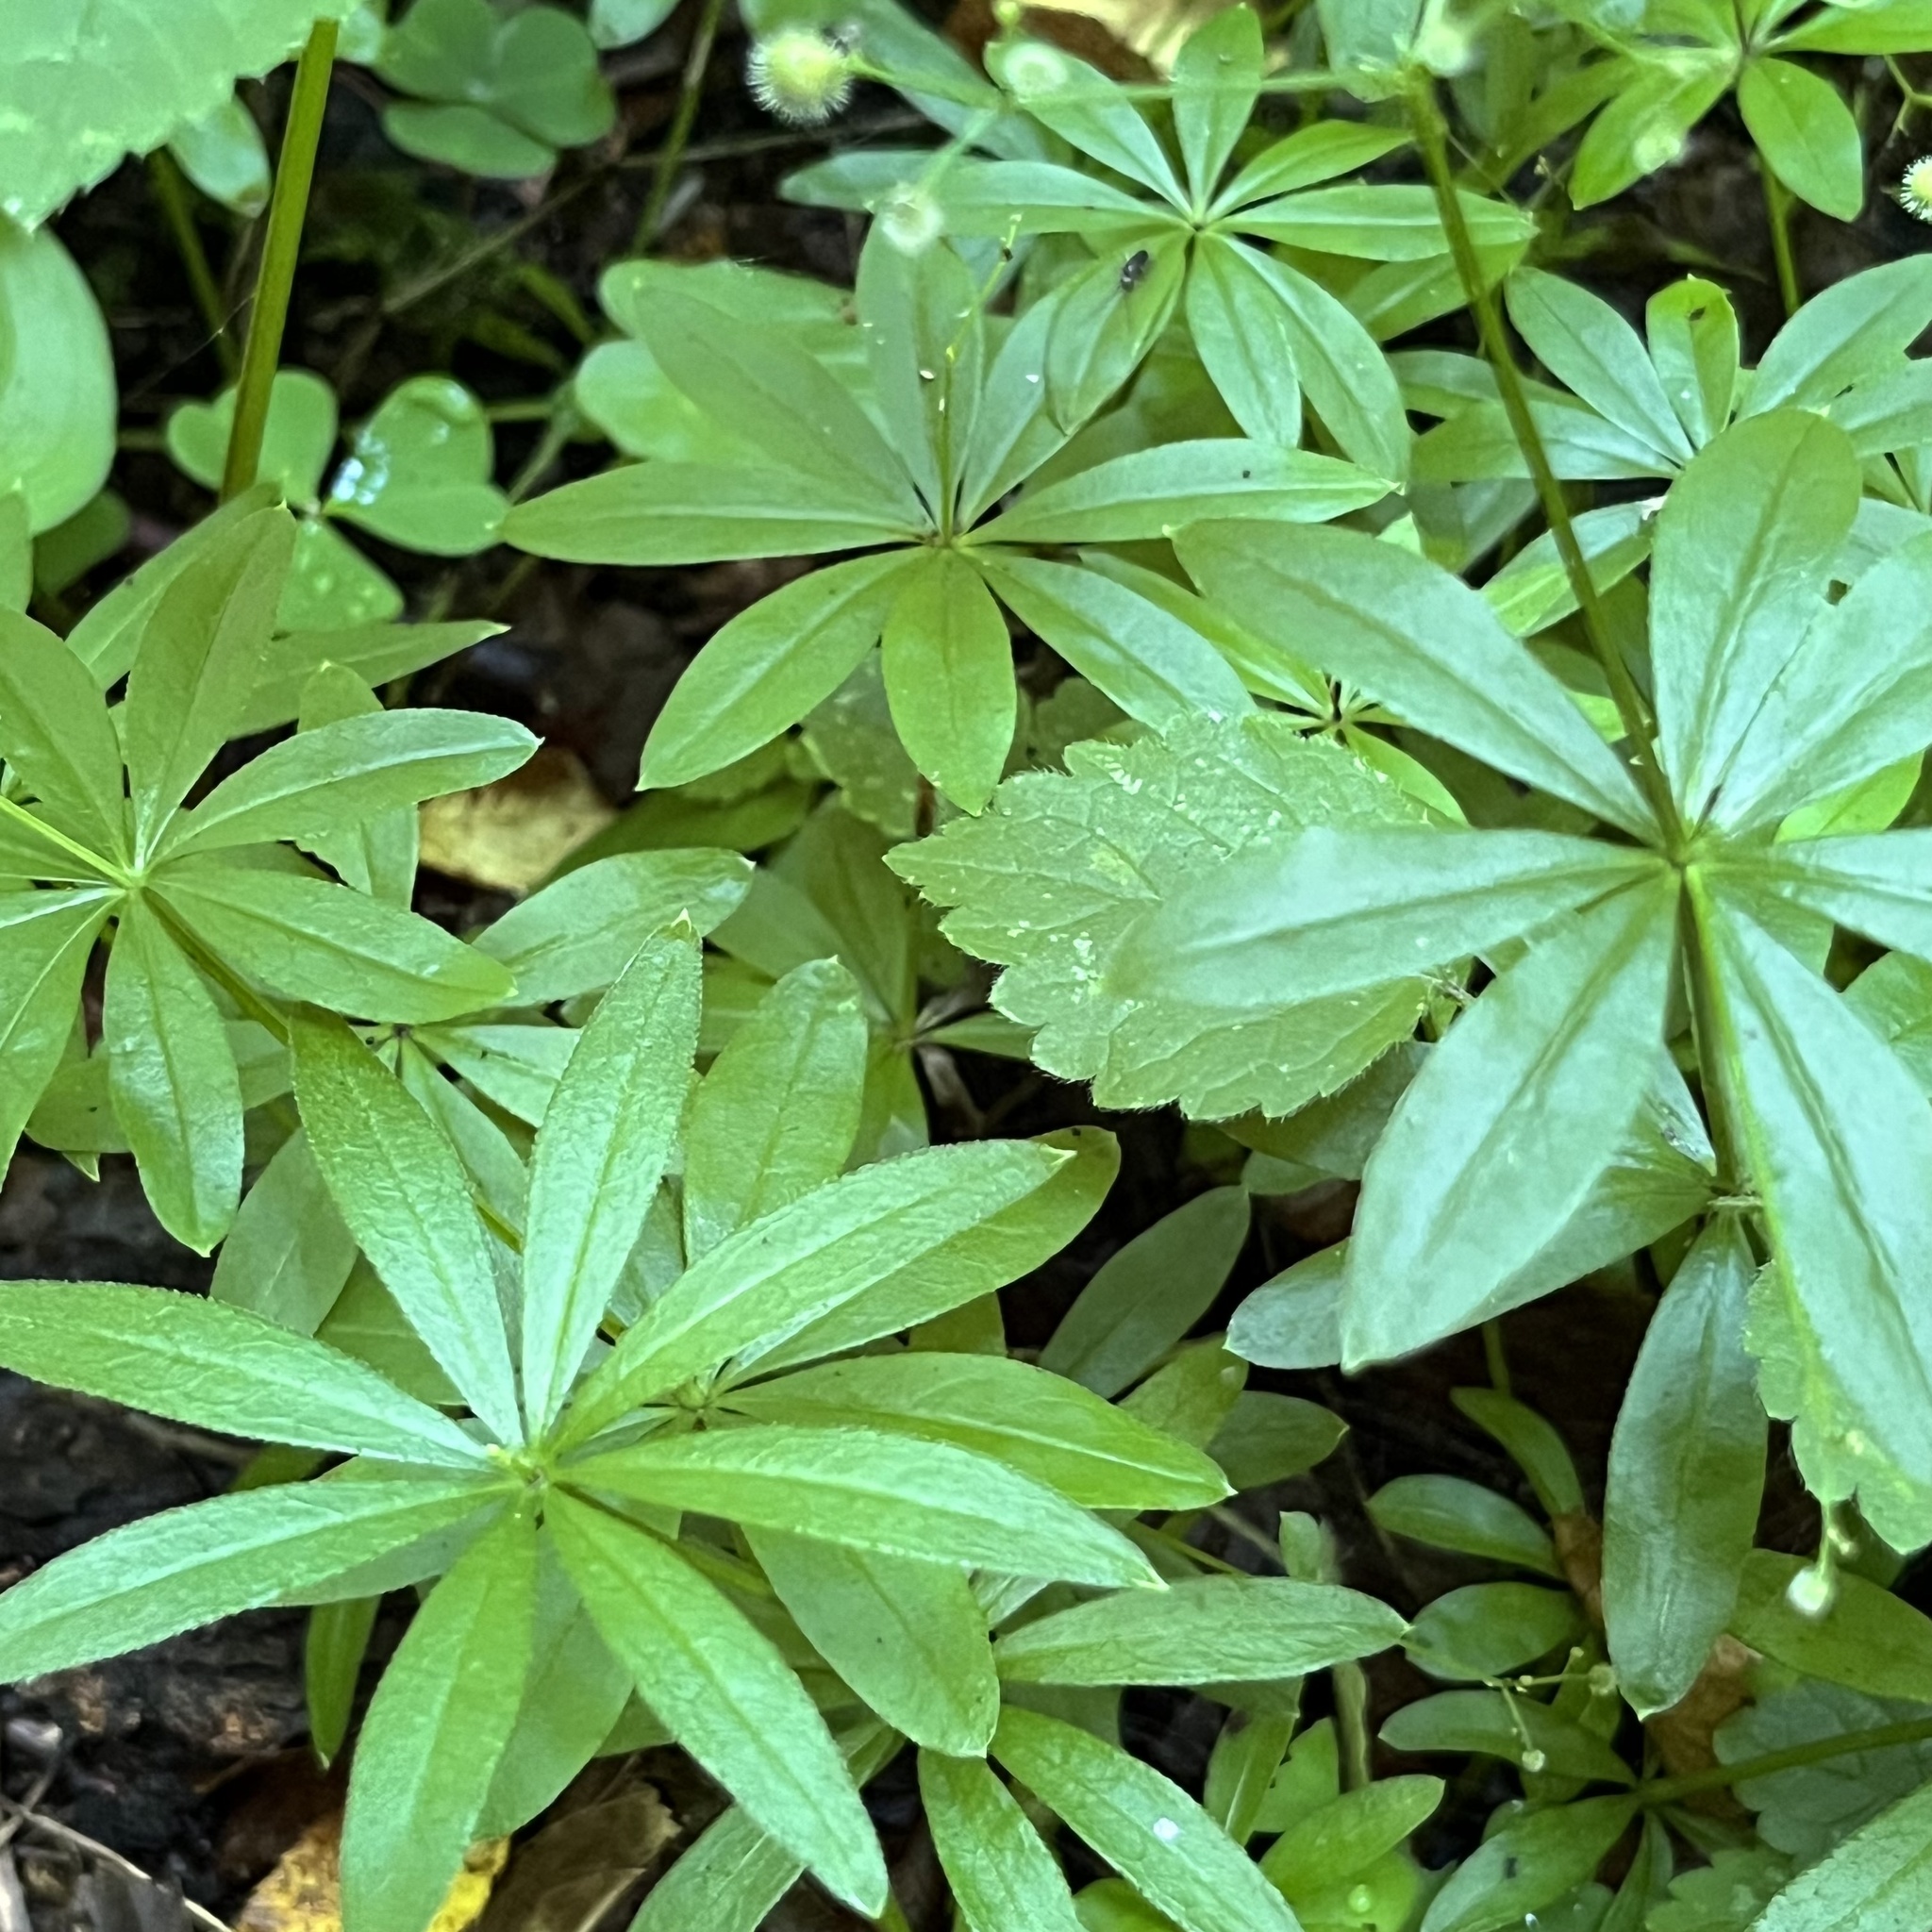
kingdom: Plantae
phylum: Tracheophyta
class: Magnoliopsida
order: Gentianales
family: Rubiaceae
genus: Galium
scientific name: Galium odoratum
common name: Sweet woodruff
